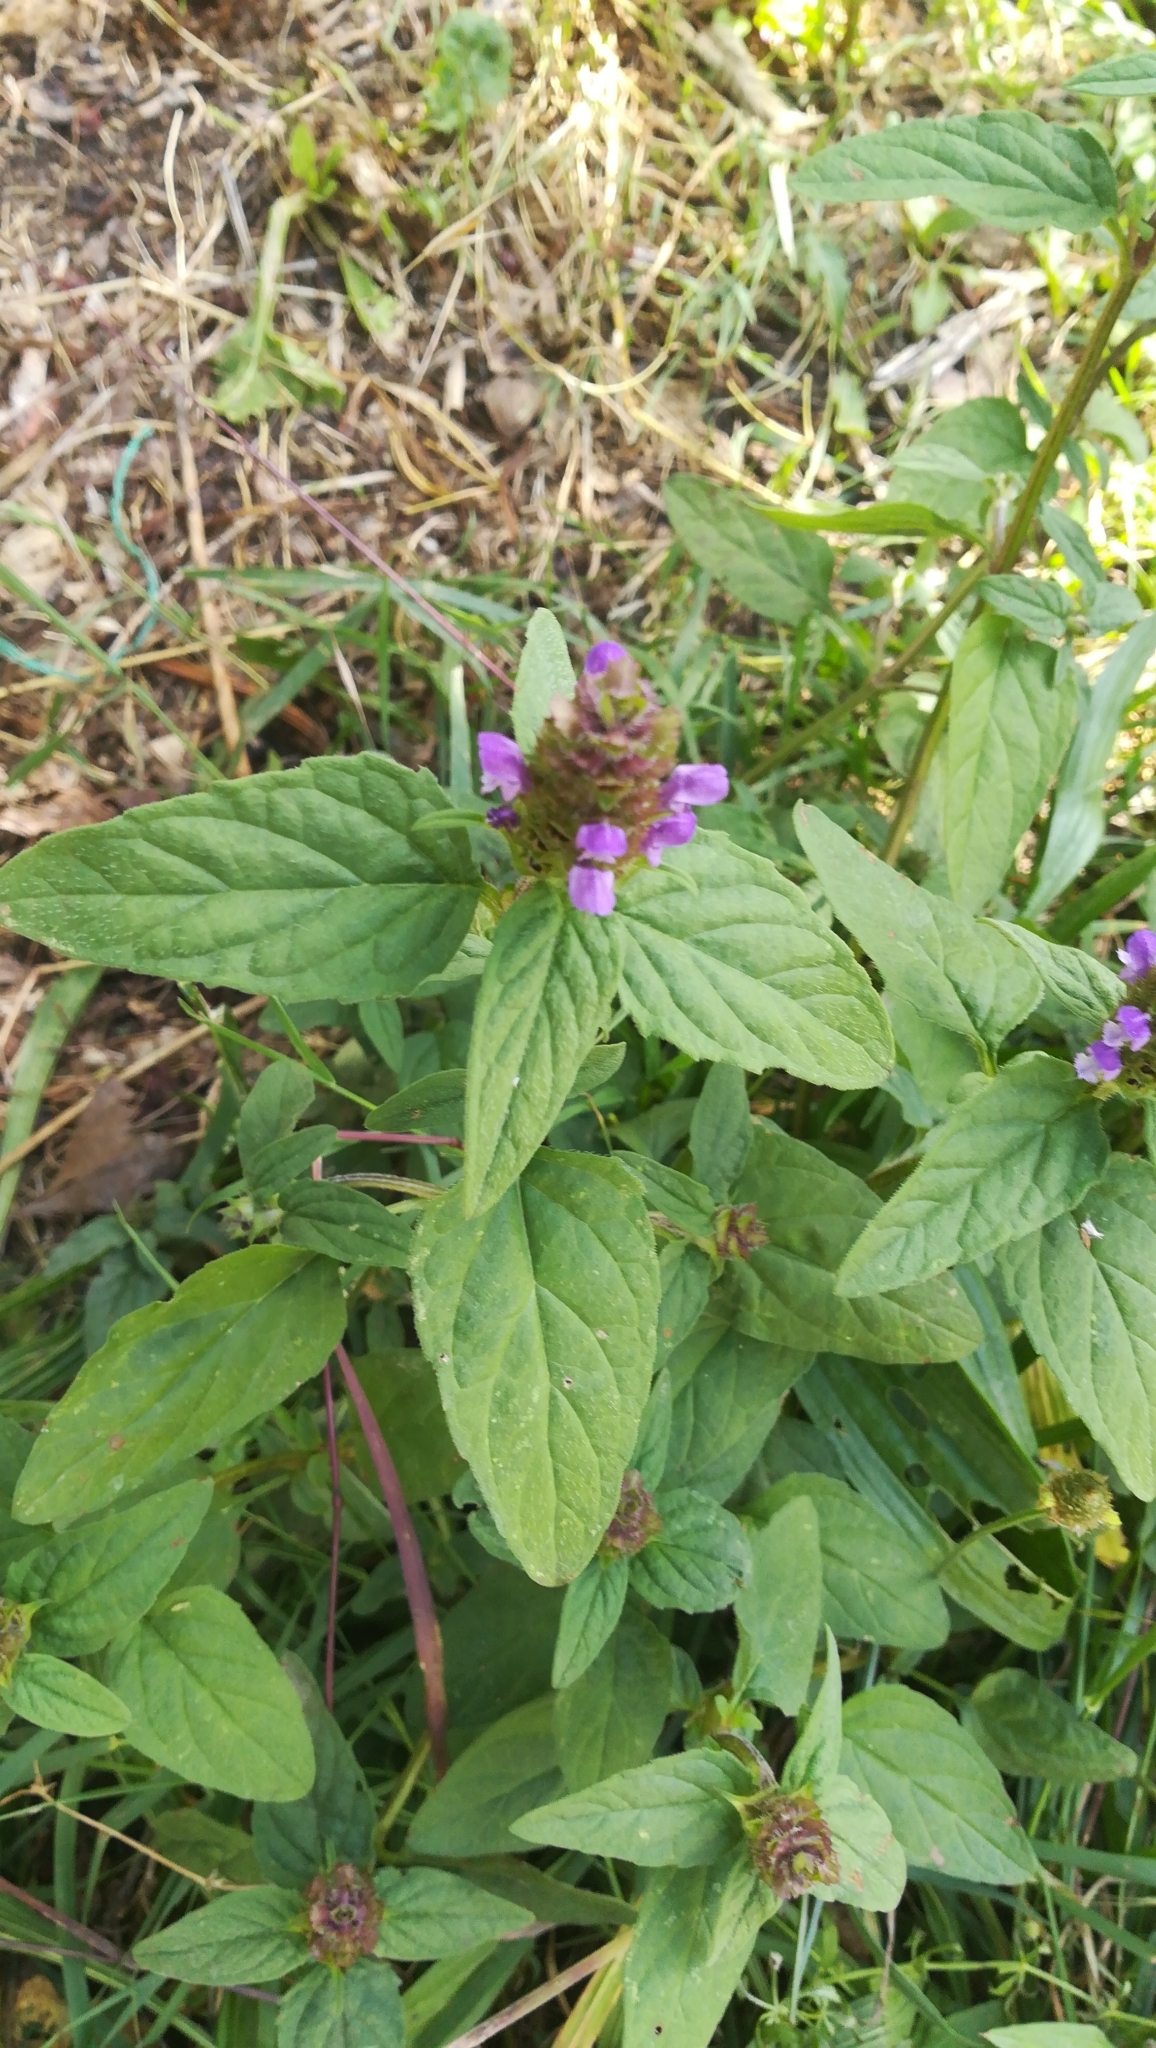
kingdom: Plantae
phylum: Tracheophyta
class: Magnoliopsida
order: Lamiales
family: Lamiaceae
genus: Prunella
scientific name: Prunella vulgaris
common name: Heal-all
